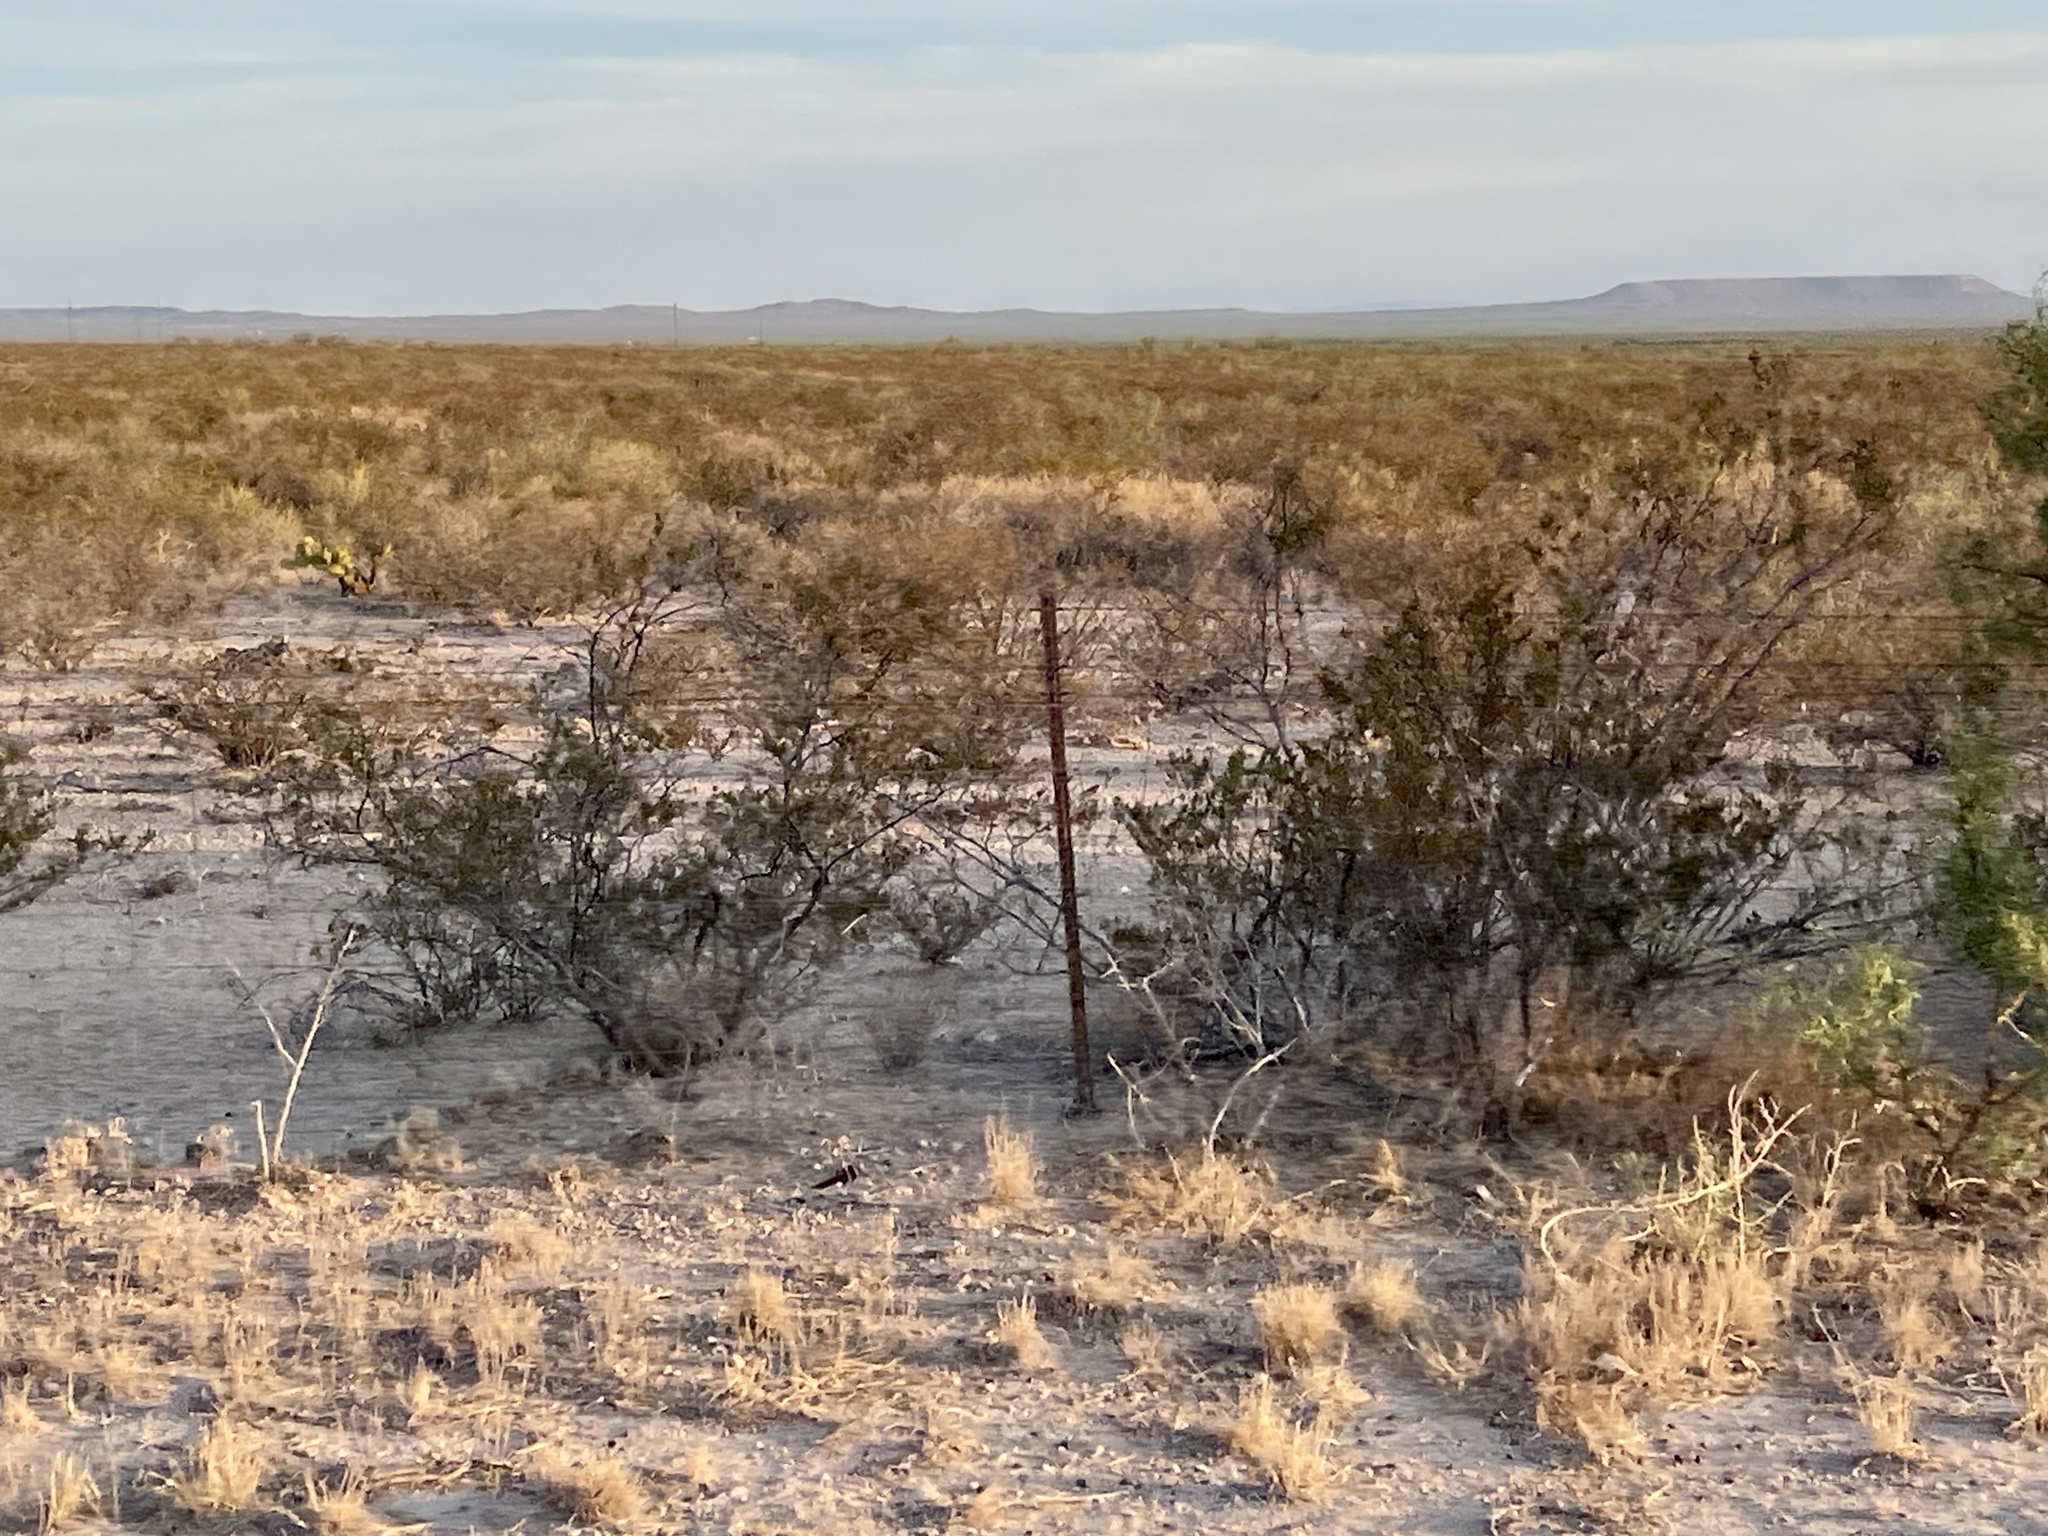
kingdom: Plantae
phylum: Tracheophyta
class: Magnoliopsida
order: Zygophyllales
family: Zygophyllaceae
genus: Larrea
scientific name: Larrea tridentata
